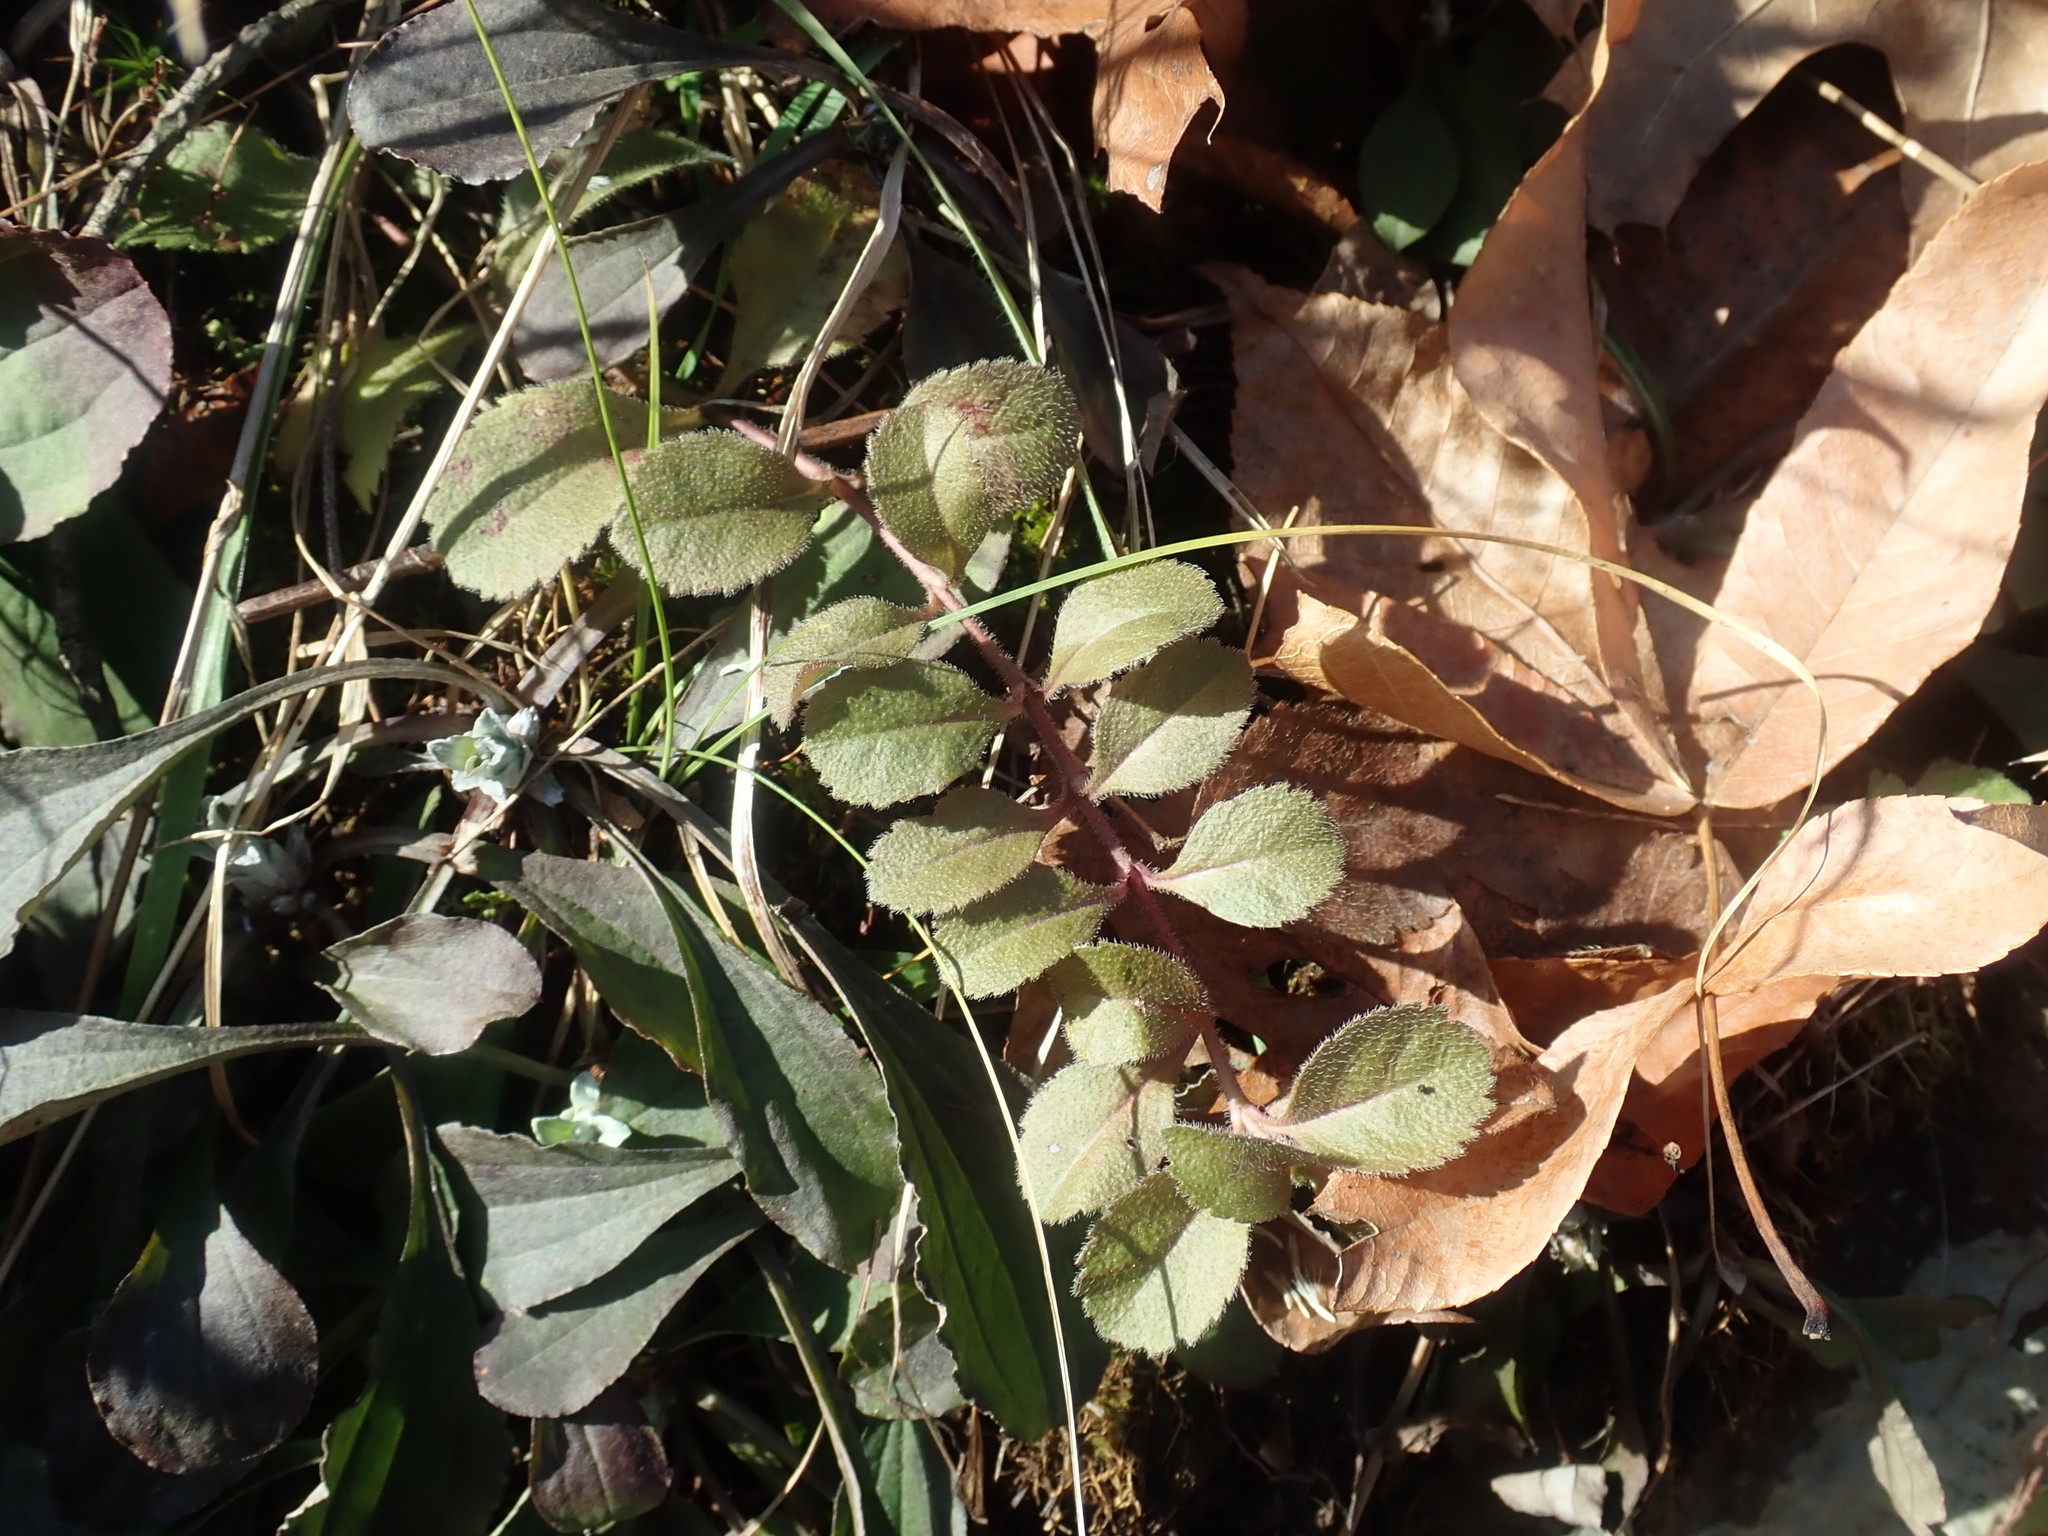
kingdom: Plantae
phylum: Tracheophyta
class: Magnoliopsida
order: Lamiales
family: Plantaginaceae
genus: Veronica
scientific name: Veronica officinalis
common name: Common speedwell
